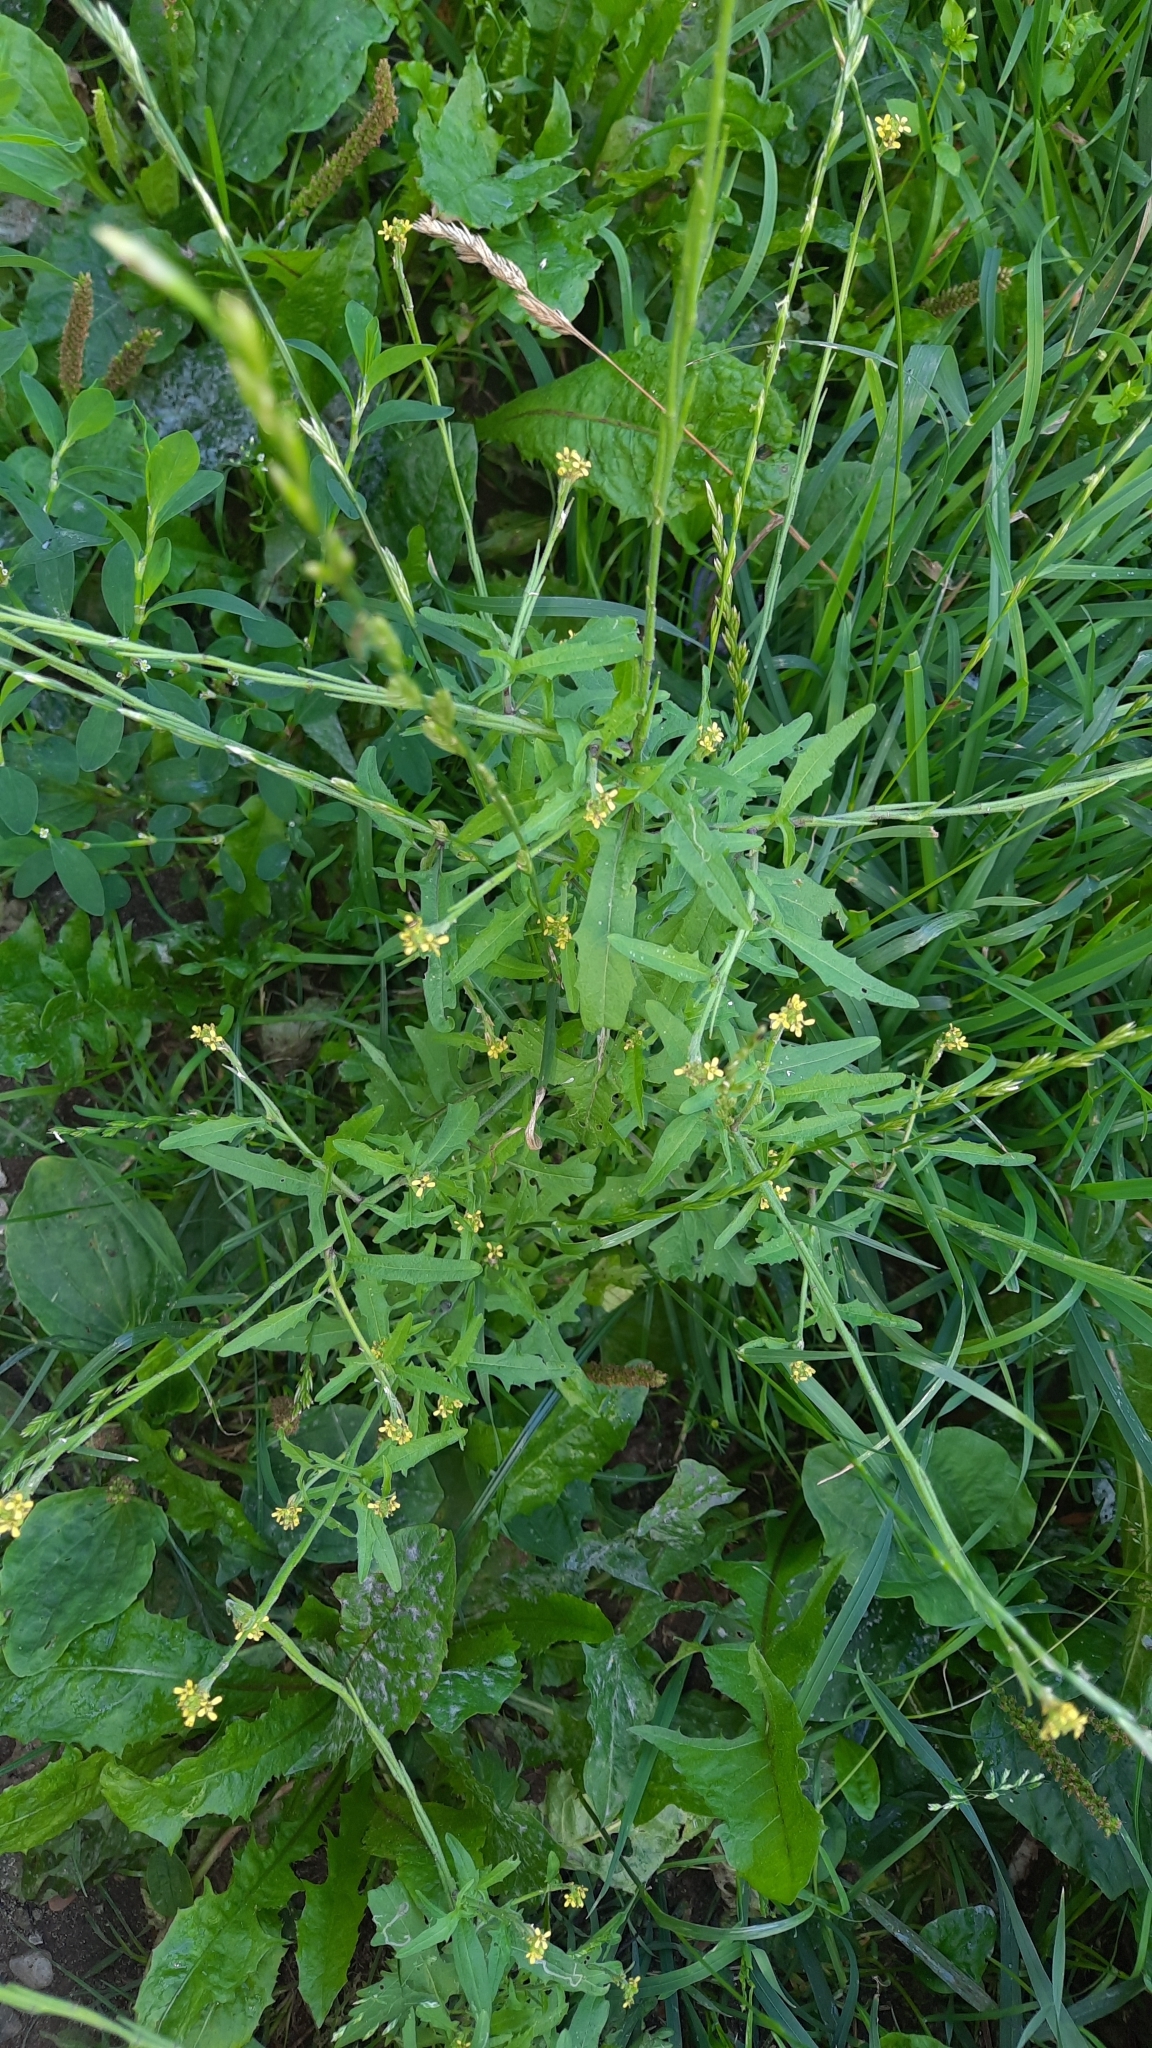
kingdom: Plantae
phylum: Tracheophyta
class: Magnoliopsida
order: Brassicales
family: Brassicaceae
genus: Sisymbrium
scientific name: Sisymbrium officinale
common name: Hedge mustard
